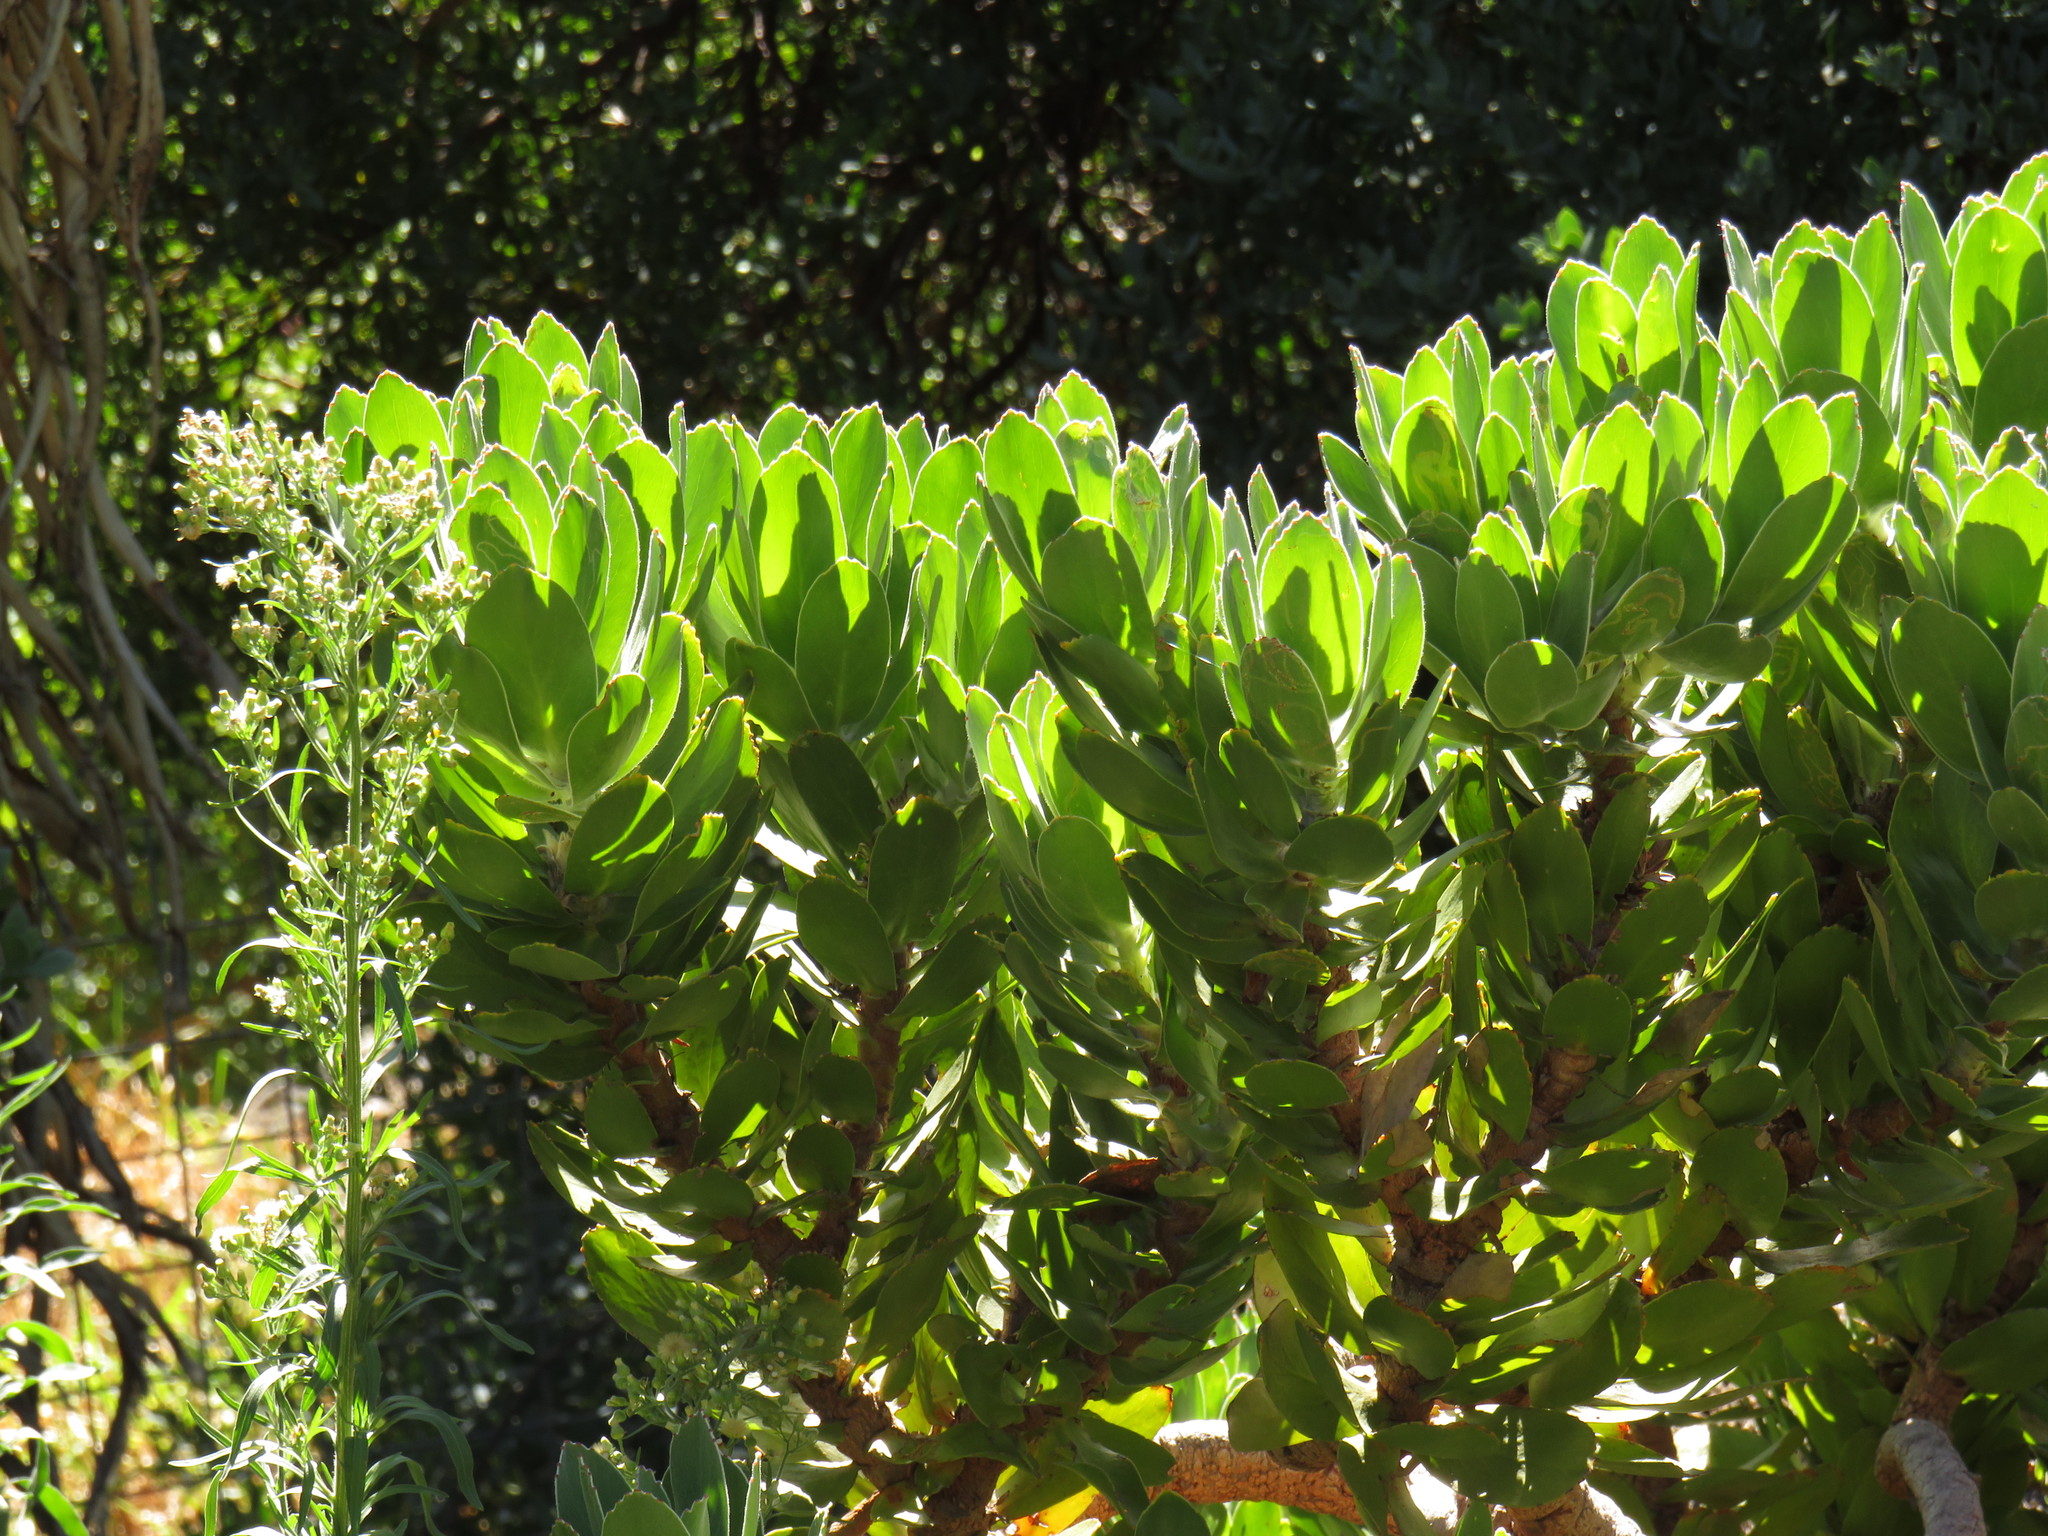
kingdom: Plantae
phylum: Tracheophyta
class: Magnoliopsida
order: Proteales
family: Proteaceae
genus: Leucospermum
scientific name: Leucospermum conocarpodendron
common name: Tree pincushion
